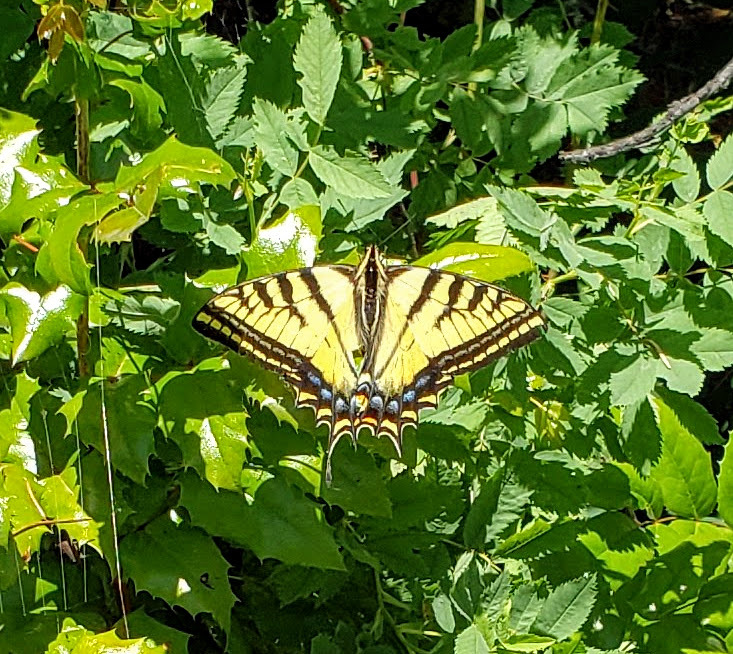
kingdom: Animalia
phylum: Arthropoda
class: Insecta
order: Lepidoptera
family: Papilionidae
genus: Papilio
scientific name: Papilio multicaudata
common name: Two-tailed tiger swallowtail
